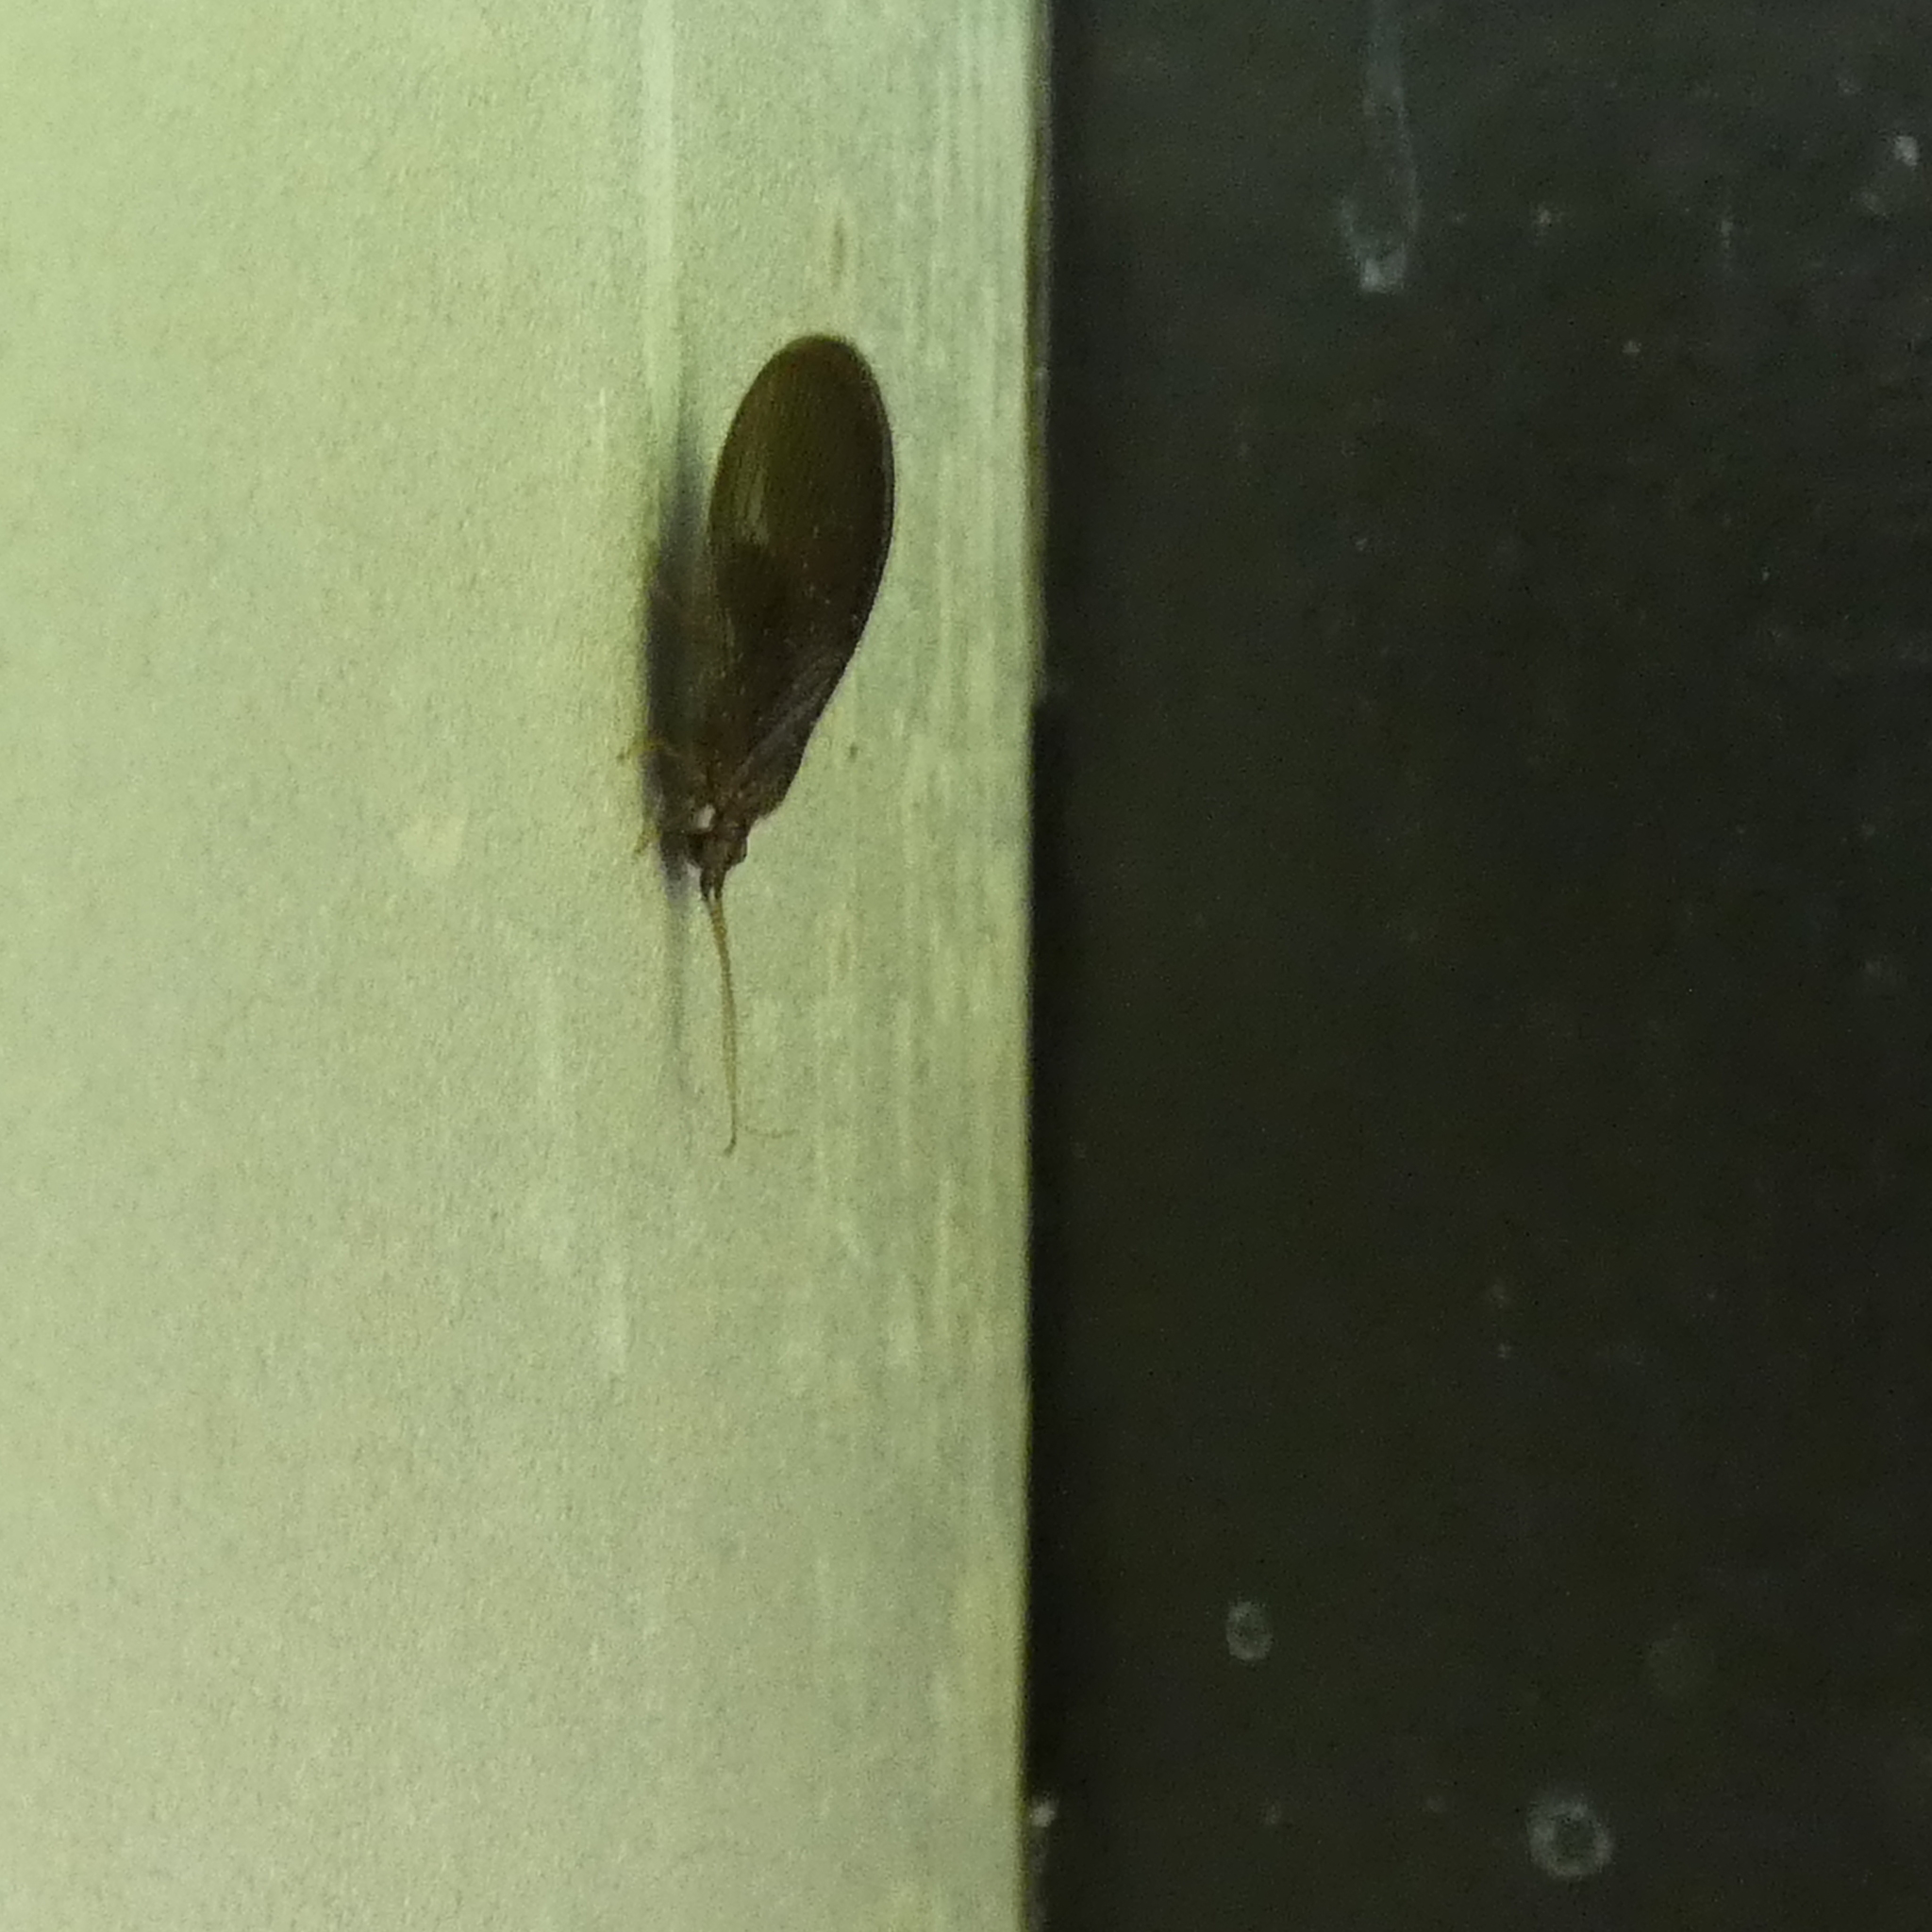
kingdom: Animalia
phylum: Arthropoda
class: Insecta
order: Neuroptera
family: Sisyridae
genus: Sisyra
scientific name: Sisyra vicaria
